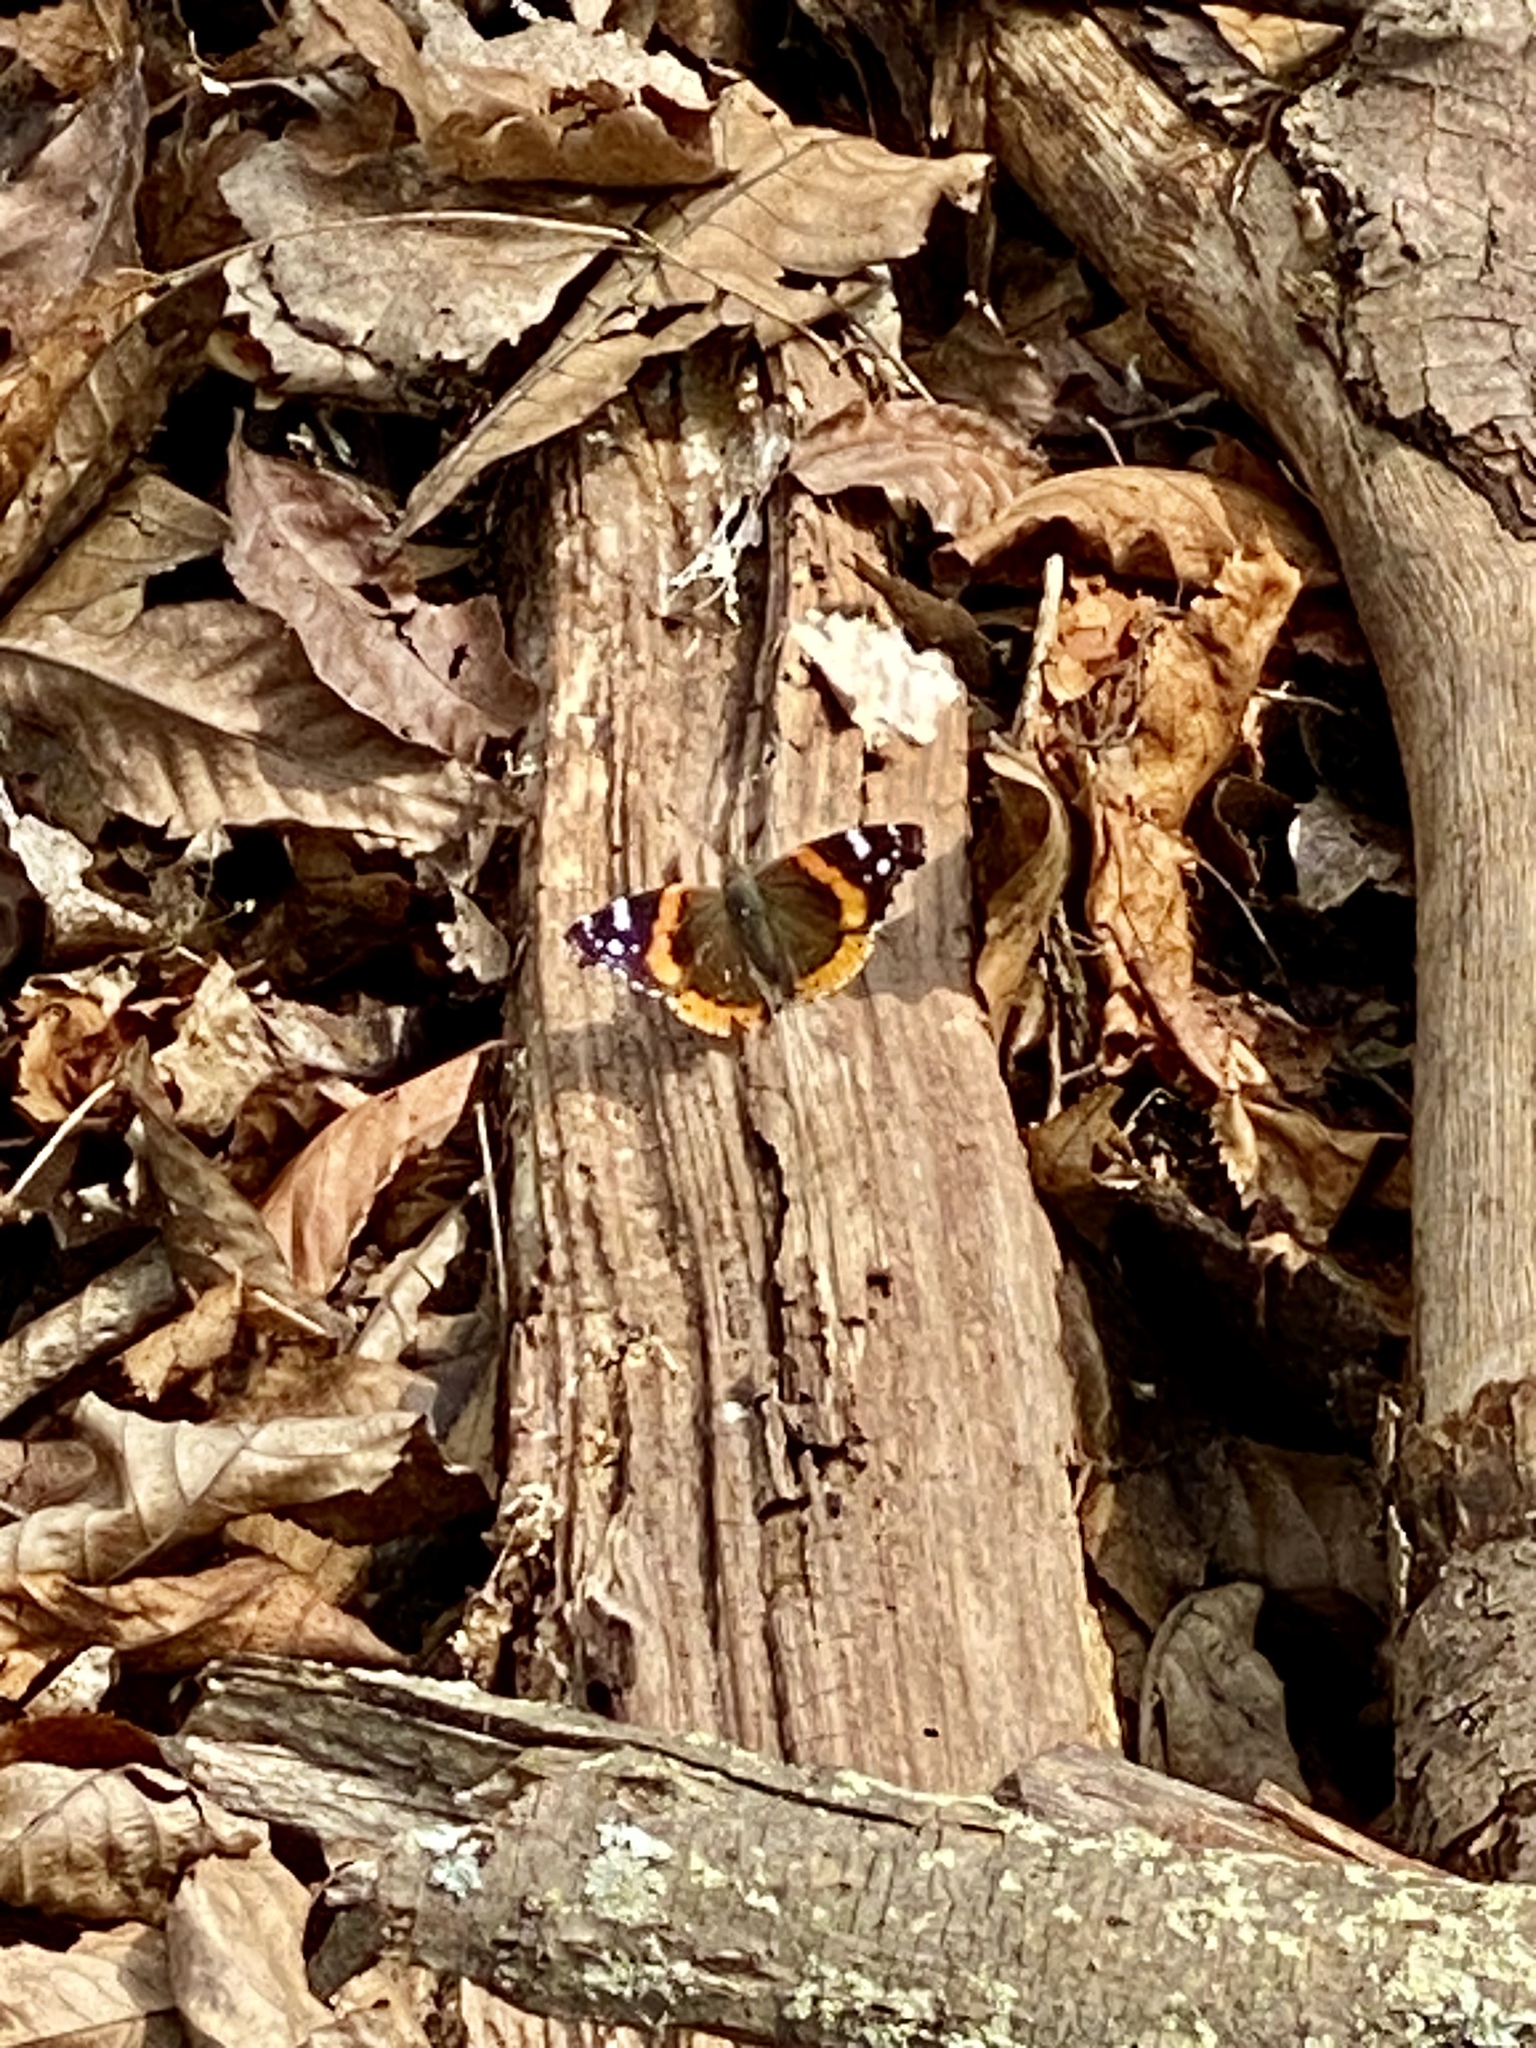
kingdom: Animalia
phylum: Arthropoda
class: Insecta
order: Lepidoptera
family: Nymphalidae
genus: Vanessa
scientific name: Vanessa atalanta
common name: Red admiral
